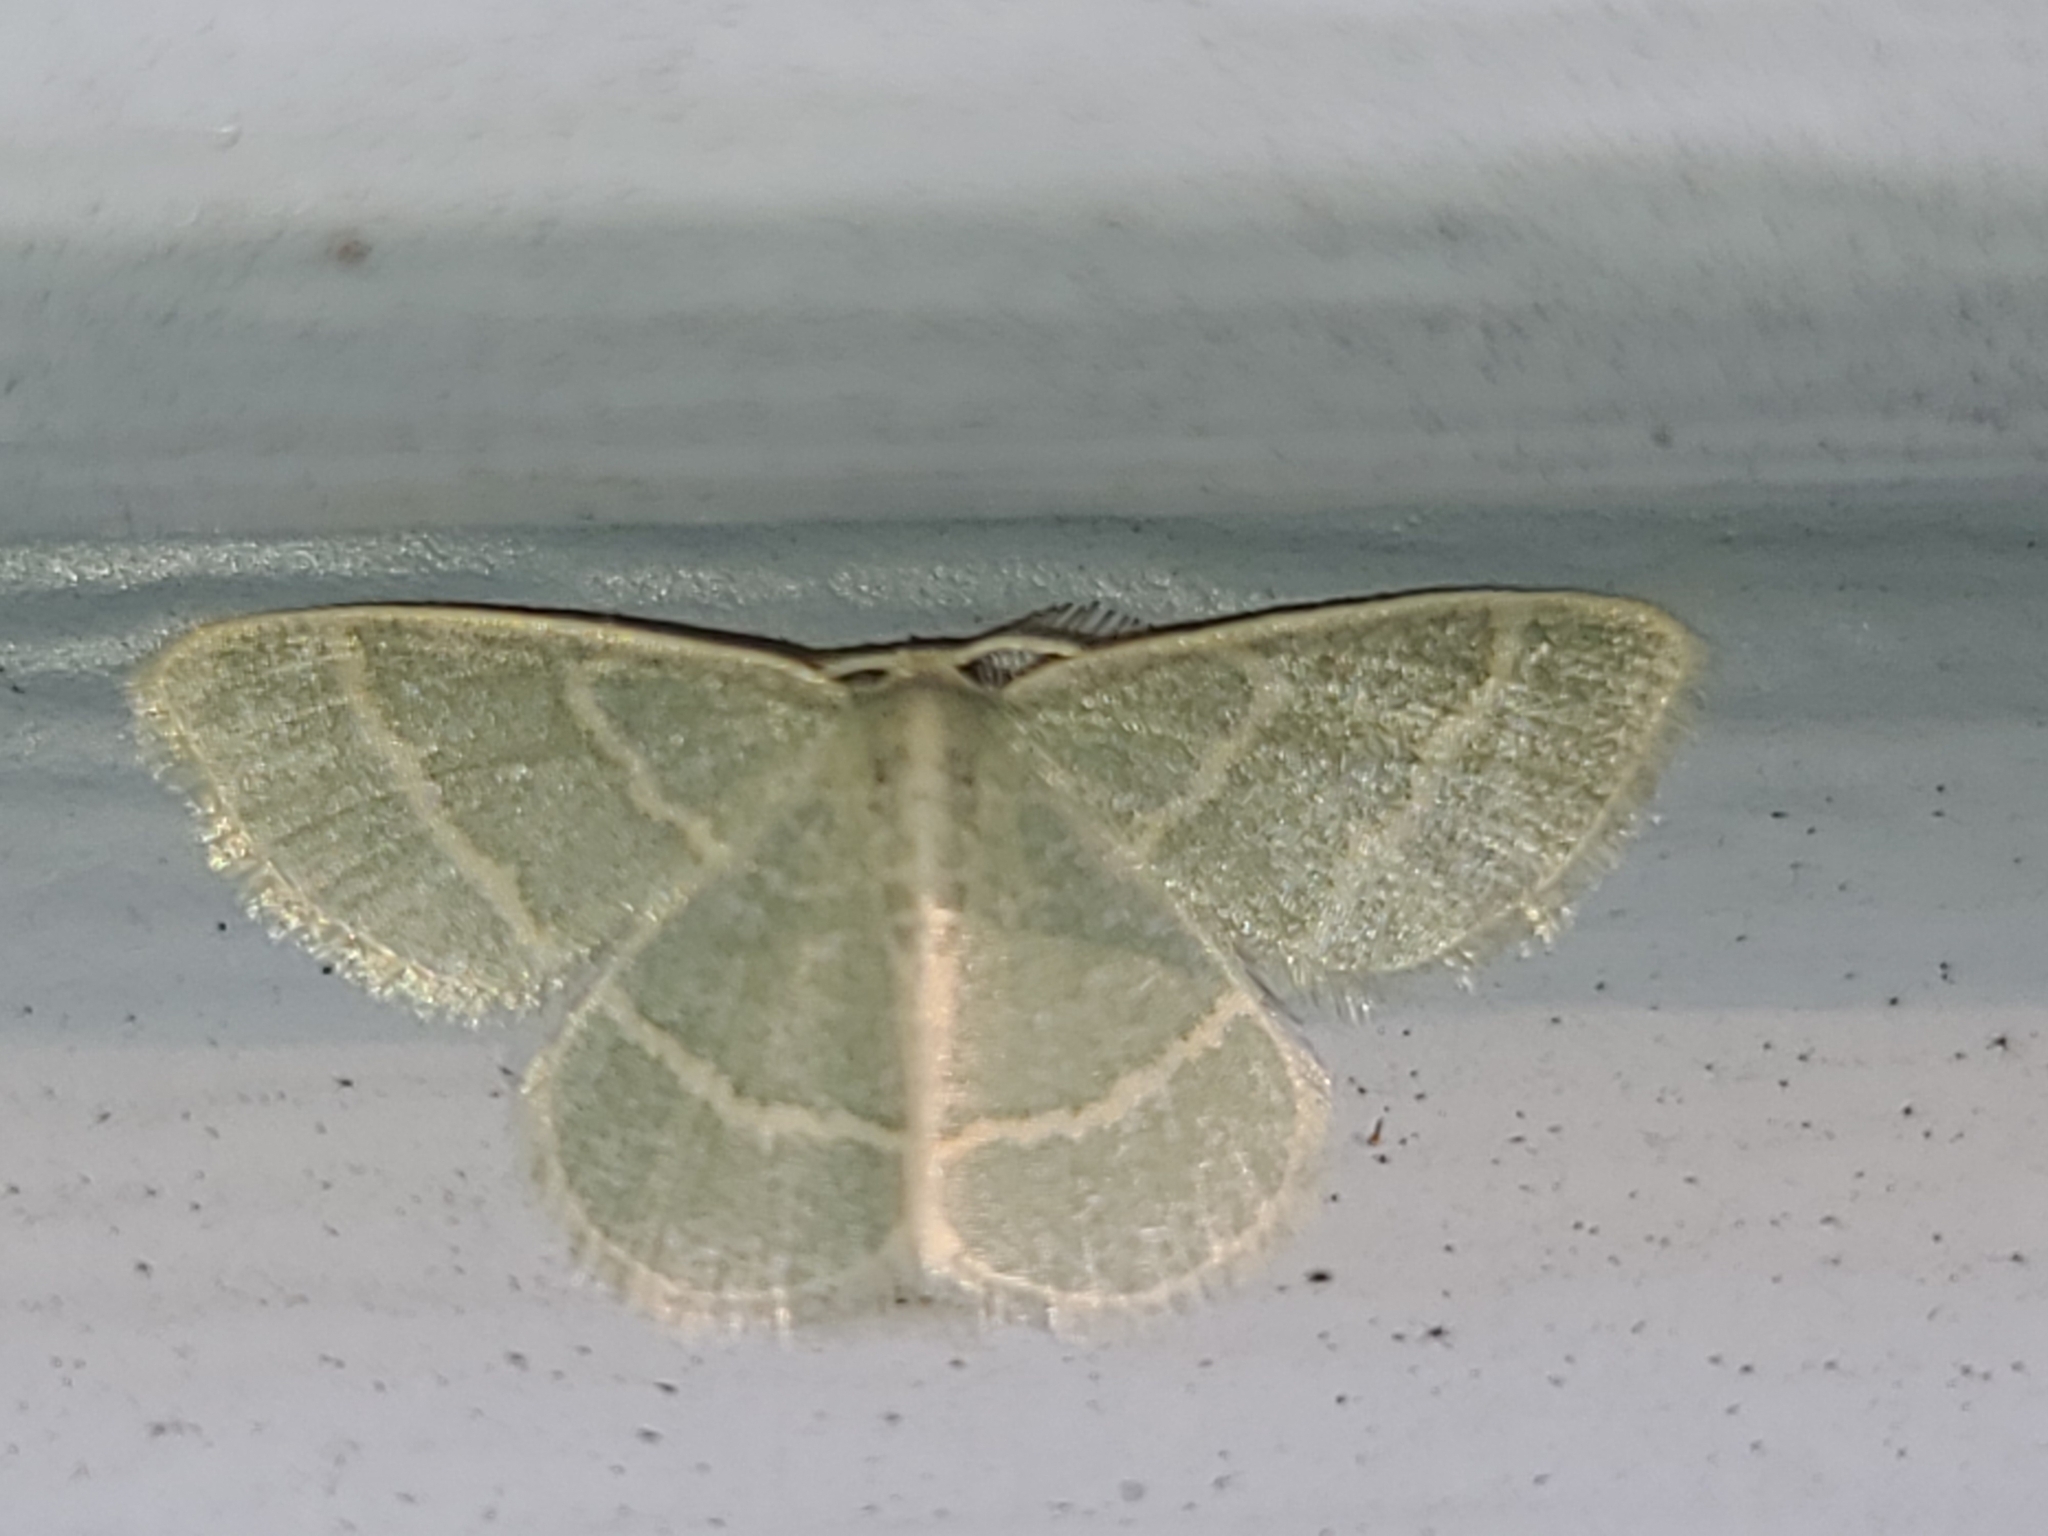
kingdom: Animalia
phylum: Arthropoda
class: Insecta
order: Lepidoptera
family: Geometridae
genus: Chlorochlamys
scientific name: Chlorochlamys chloroleucaria
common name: Blackberry looper
